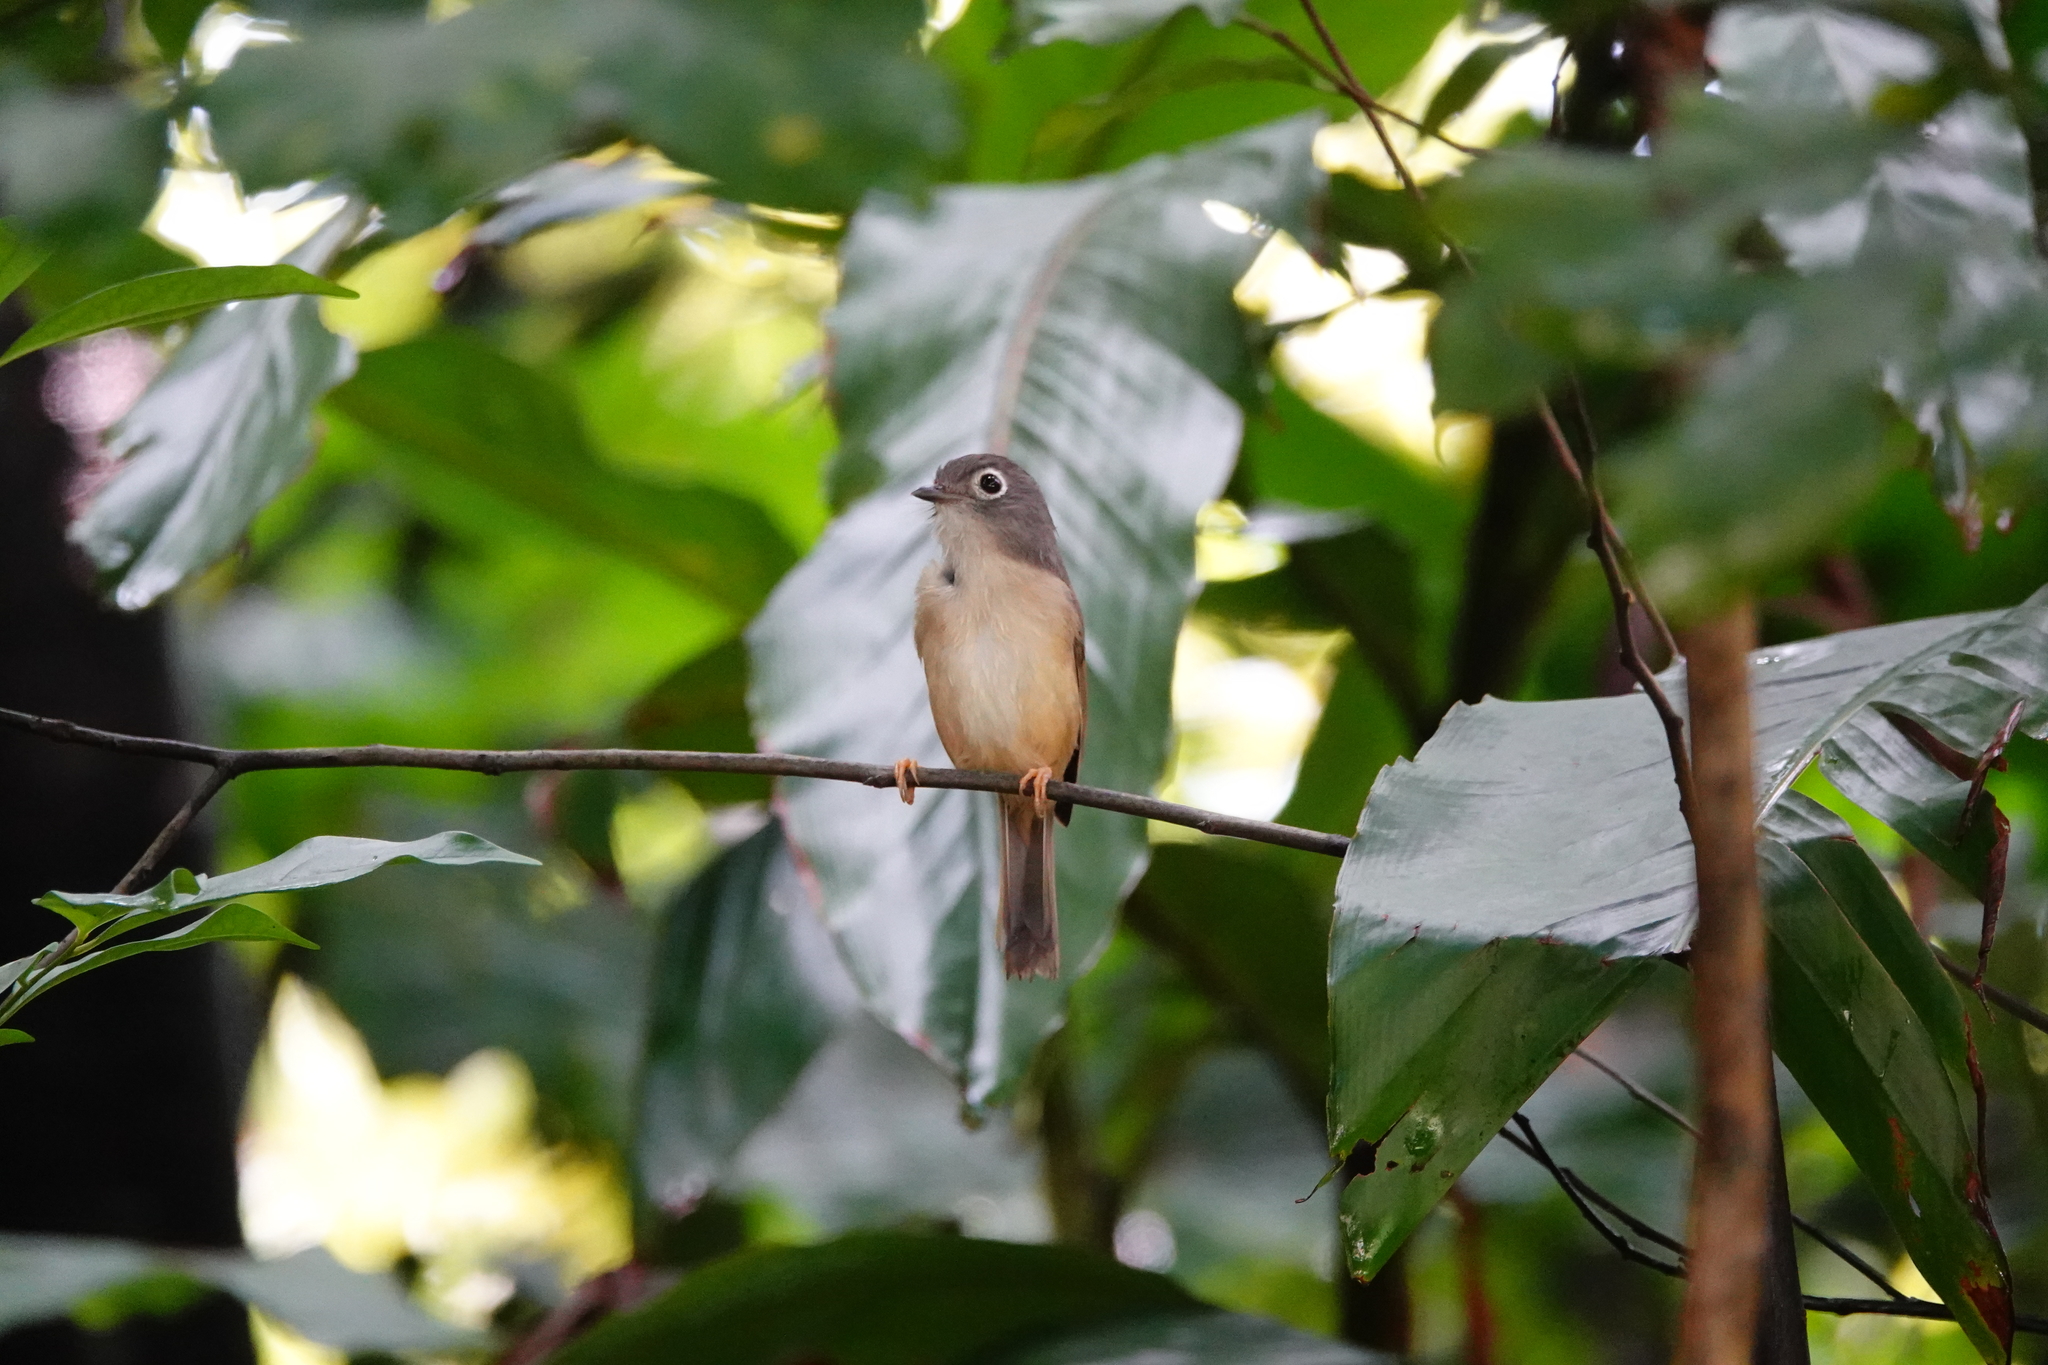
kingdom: Animalia
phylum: Chordata
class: Aves
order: Passeriformes
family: Pellorneidae
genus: Alcippe
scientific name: Alcippe morrisonia
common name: Grey-cheeked fulvetta
